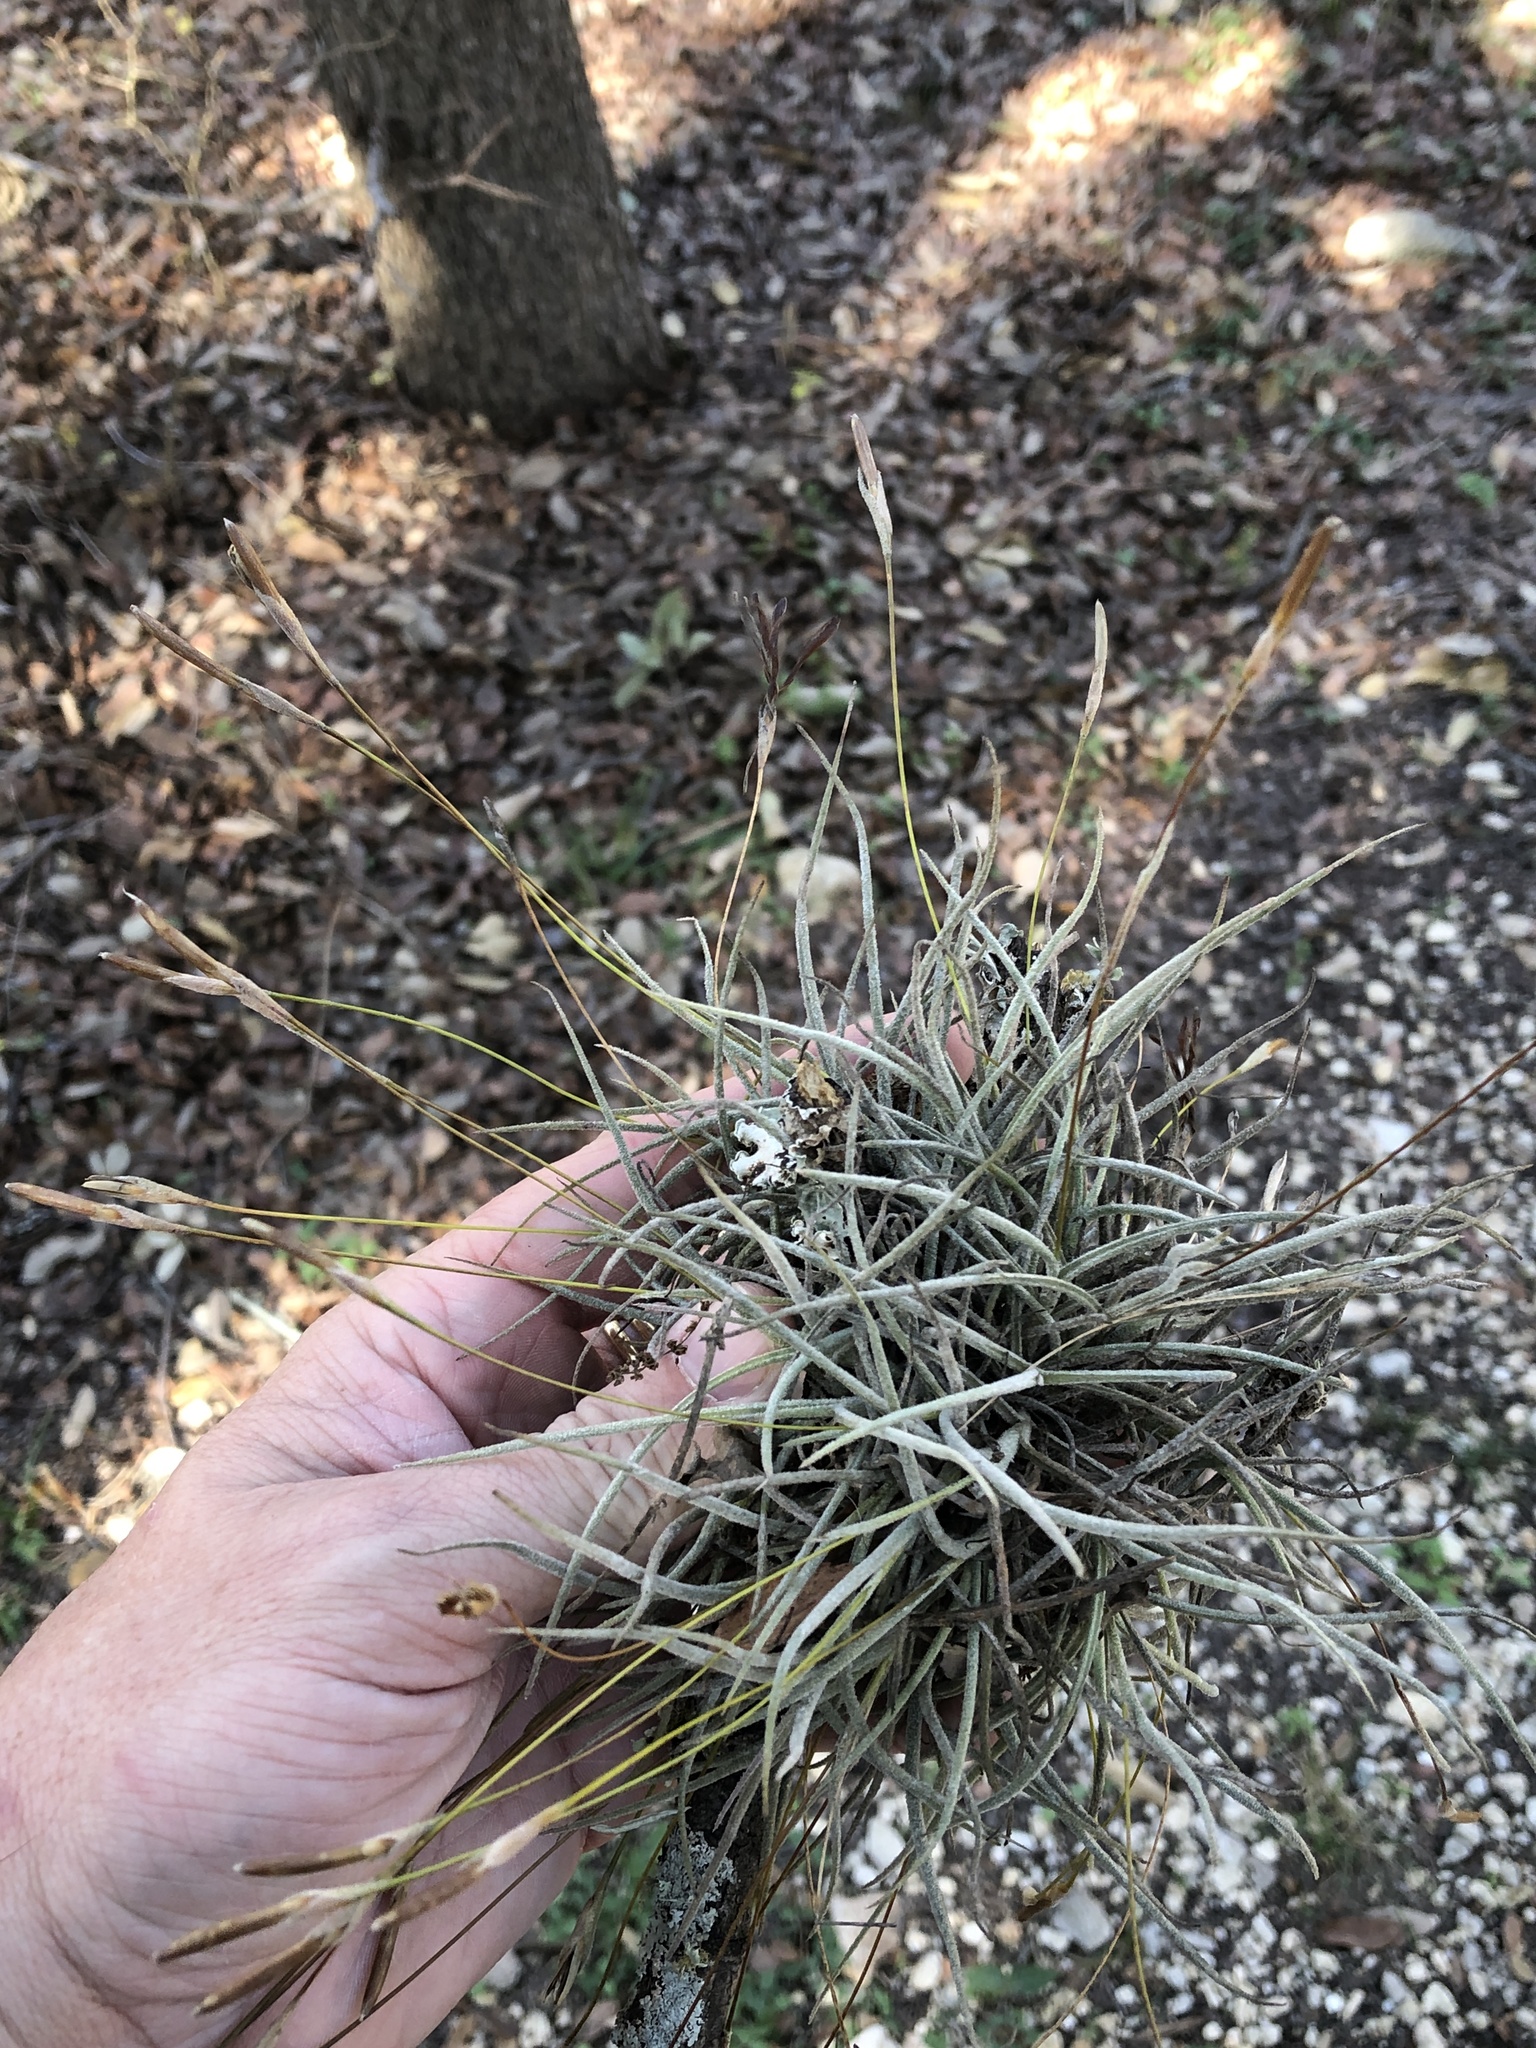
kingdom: Plantae
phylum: Tracheophyta
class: Liliopsida
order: Poales
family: Bromeliaceae
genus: Tillandsia
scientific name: Tillandsia recurvata
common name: Small ballmoss
